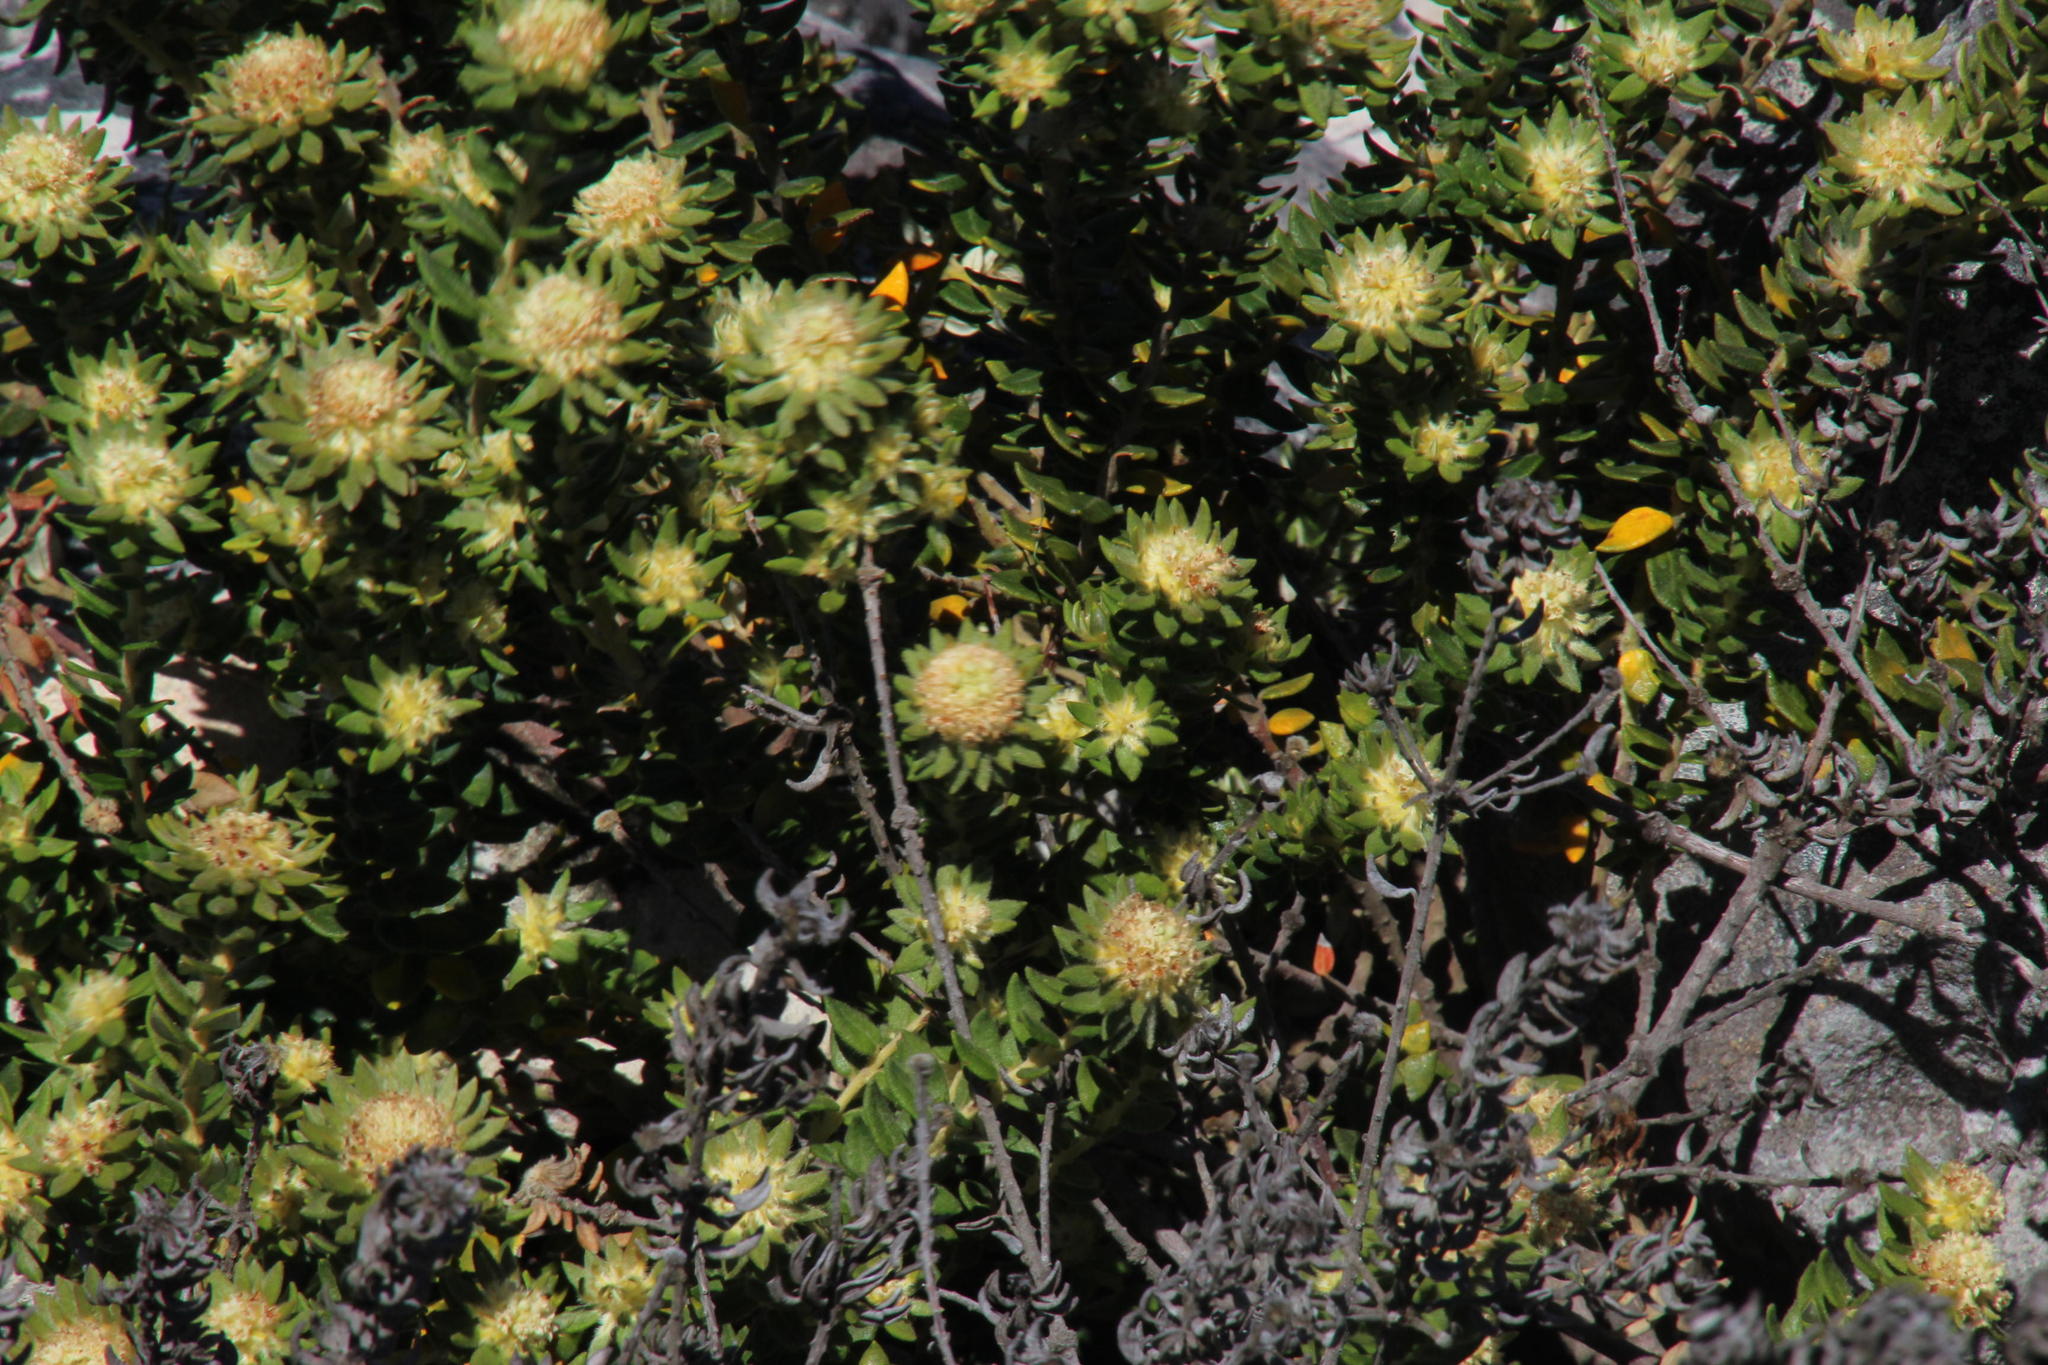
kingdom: Plantae
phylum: Tracheophyta
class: Magnoliopsida
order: Rosales
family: Rhamnaceae
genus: Phylica
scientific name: Phylica dioica
